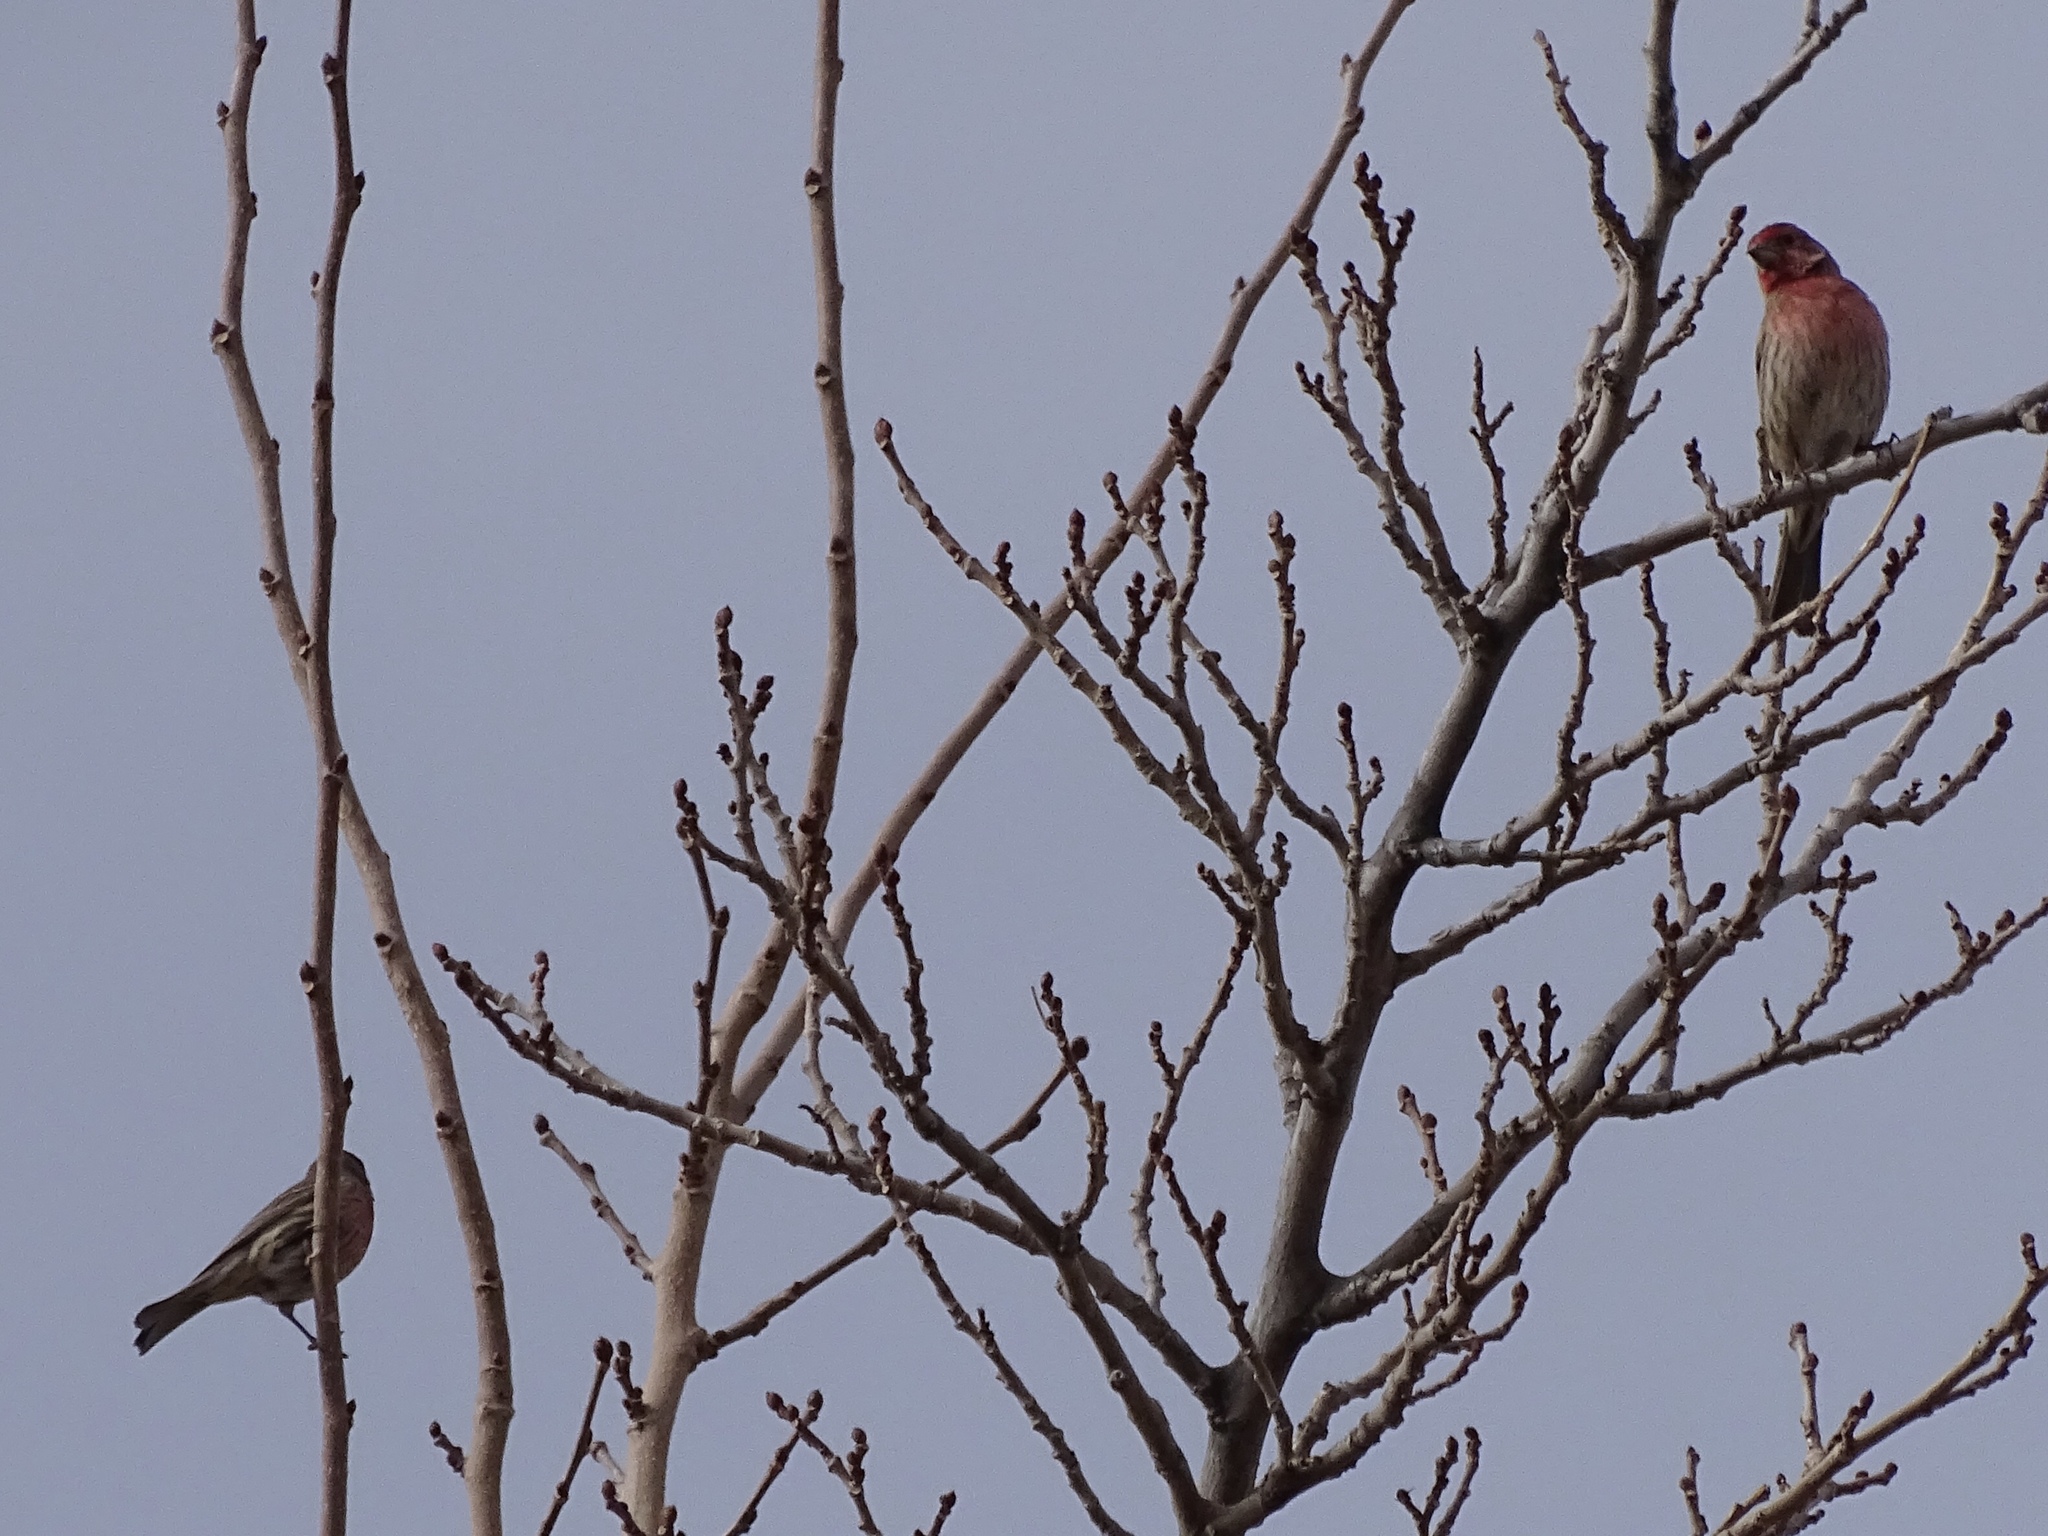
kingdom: Animalia
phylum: Chordata
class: Aves
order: Passeriformes
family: Fringillidae
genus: Haemorhous
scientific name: Haemorhous mexicanus
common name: House finch
